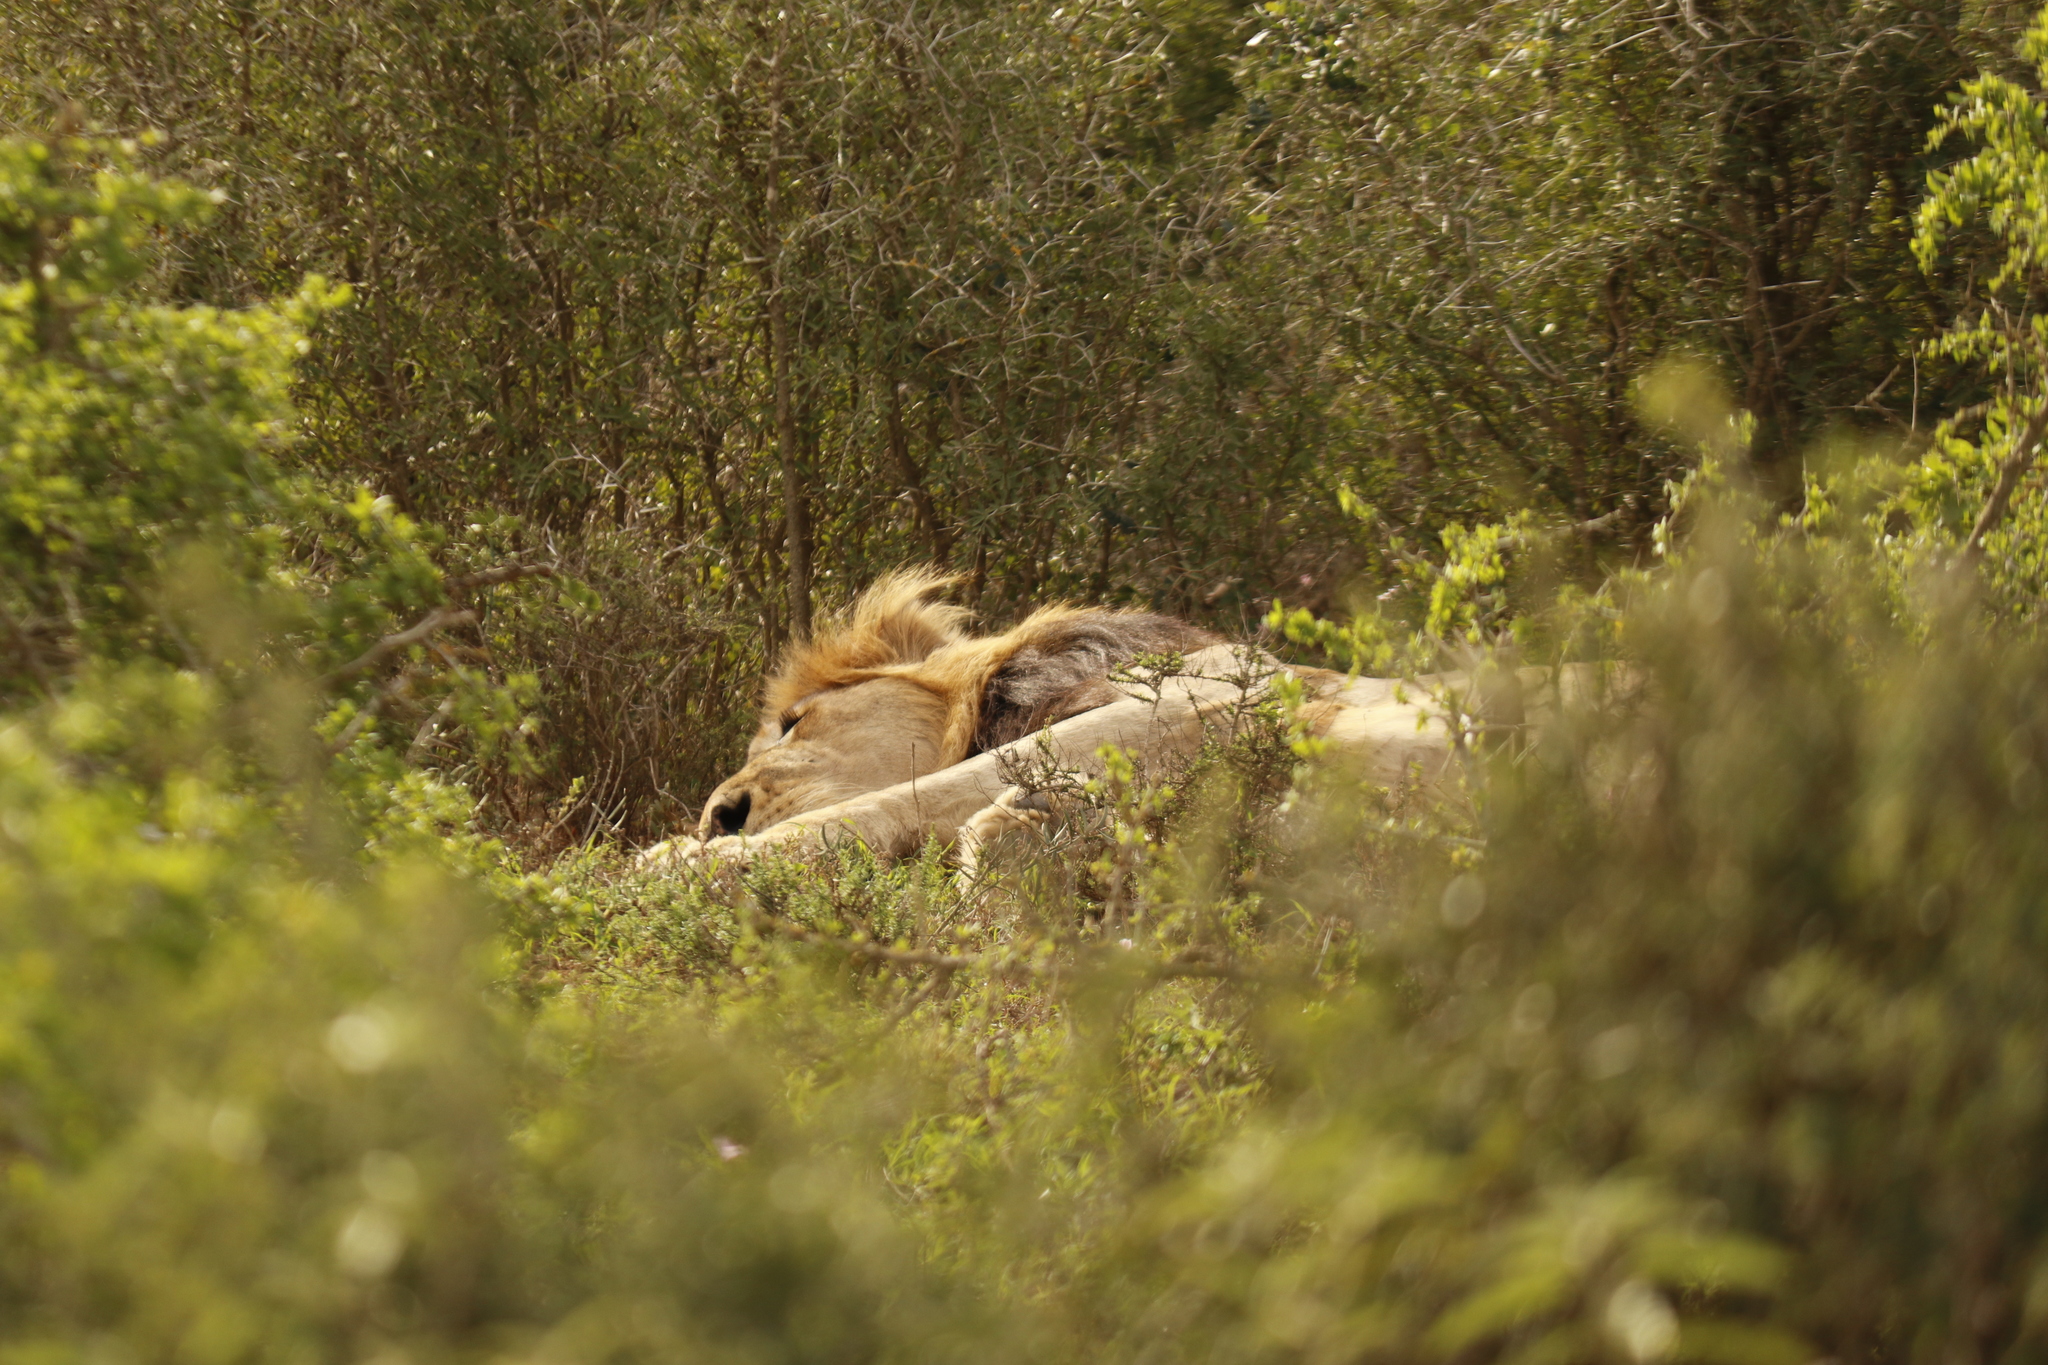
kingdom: Animalia
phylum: Chordata
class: Mammalia
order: Carnivora
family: Felidae
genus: Panthera
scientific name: Panthera leo
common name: Lion
